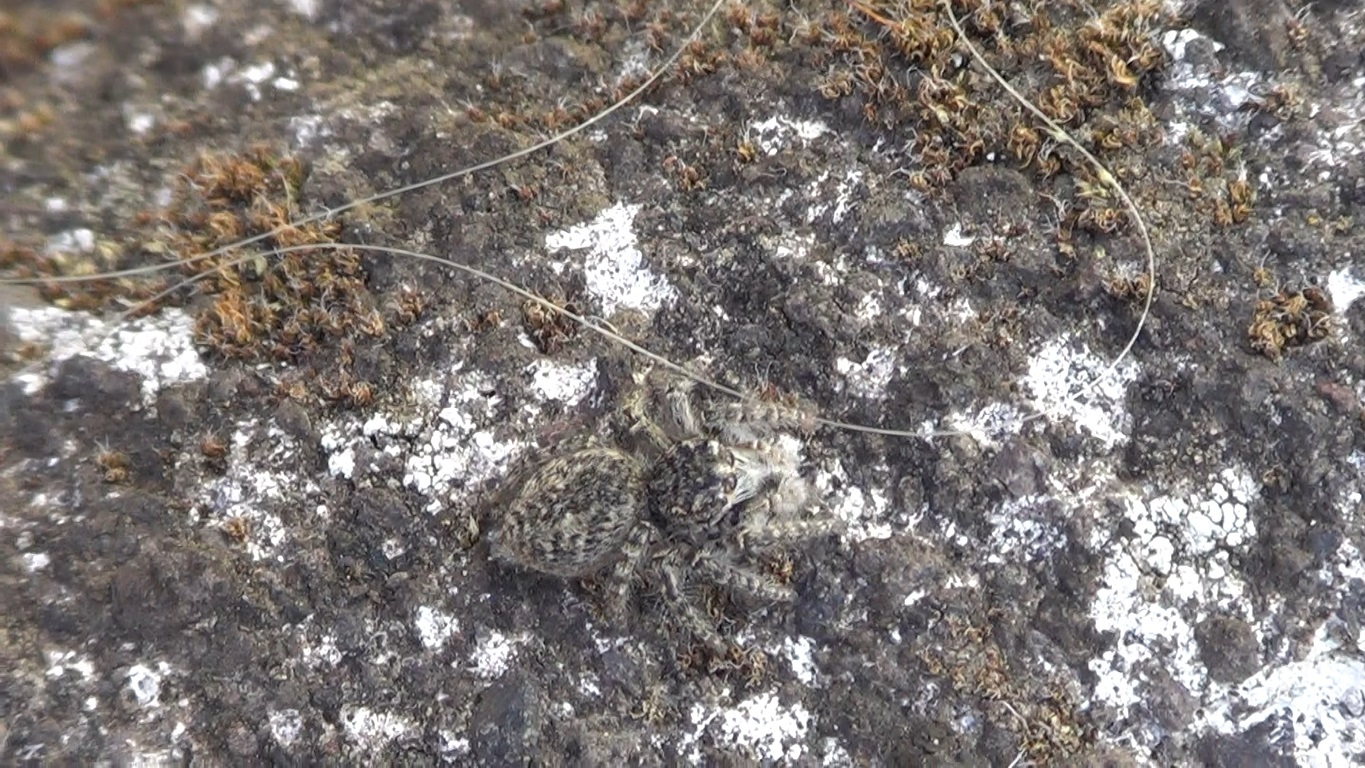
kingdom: Animalia
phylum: Arthropoda
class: Arachnida
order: Araneae
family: Salticidae
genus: Philaeus
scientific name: Philaeus chrysops
